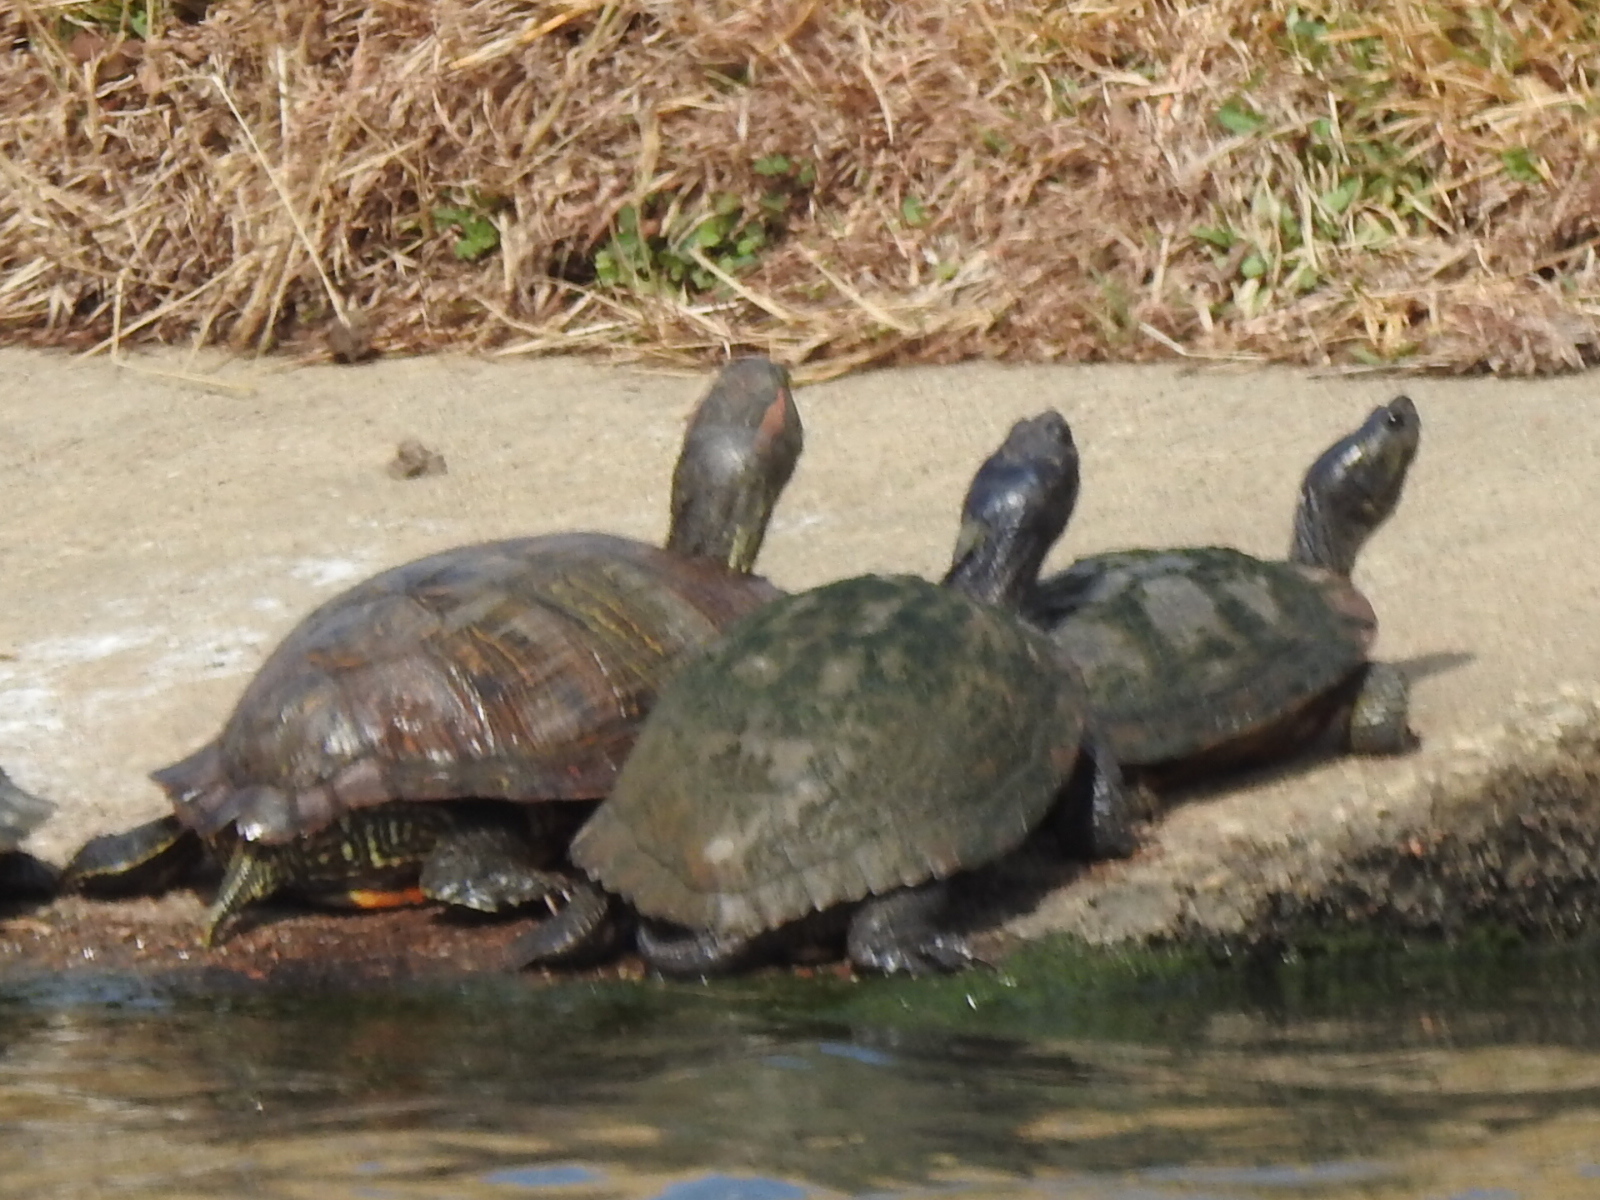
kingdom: Animalia
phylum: Chordata
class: Testudines
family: Emydidae
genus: Trachemys
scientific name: Trachemys scripta
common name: Slider
